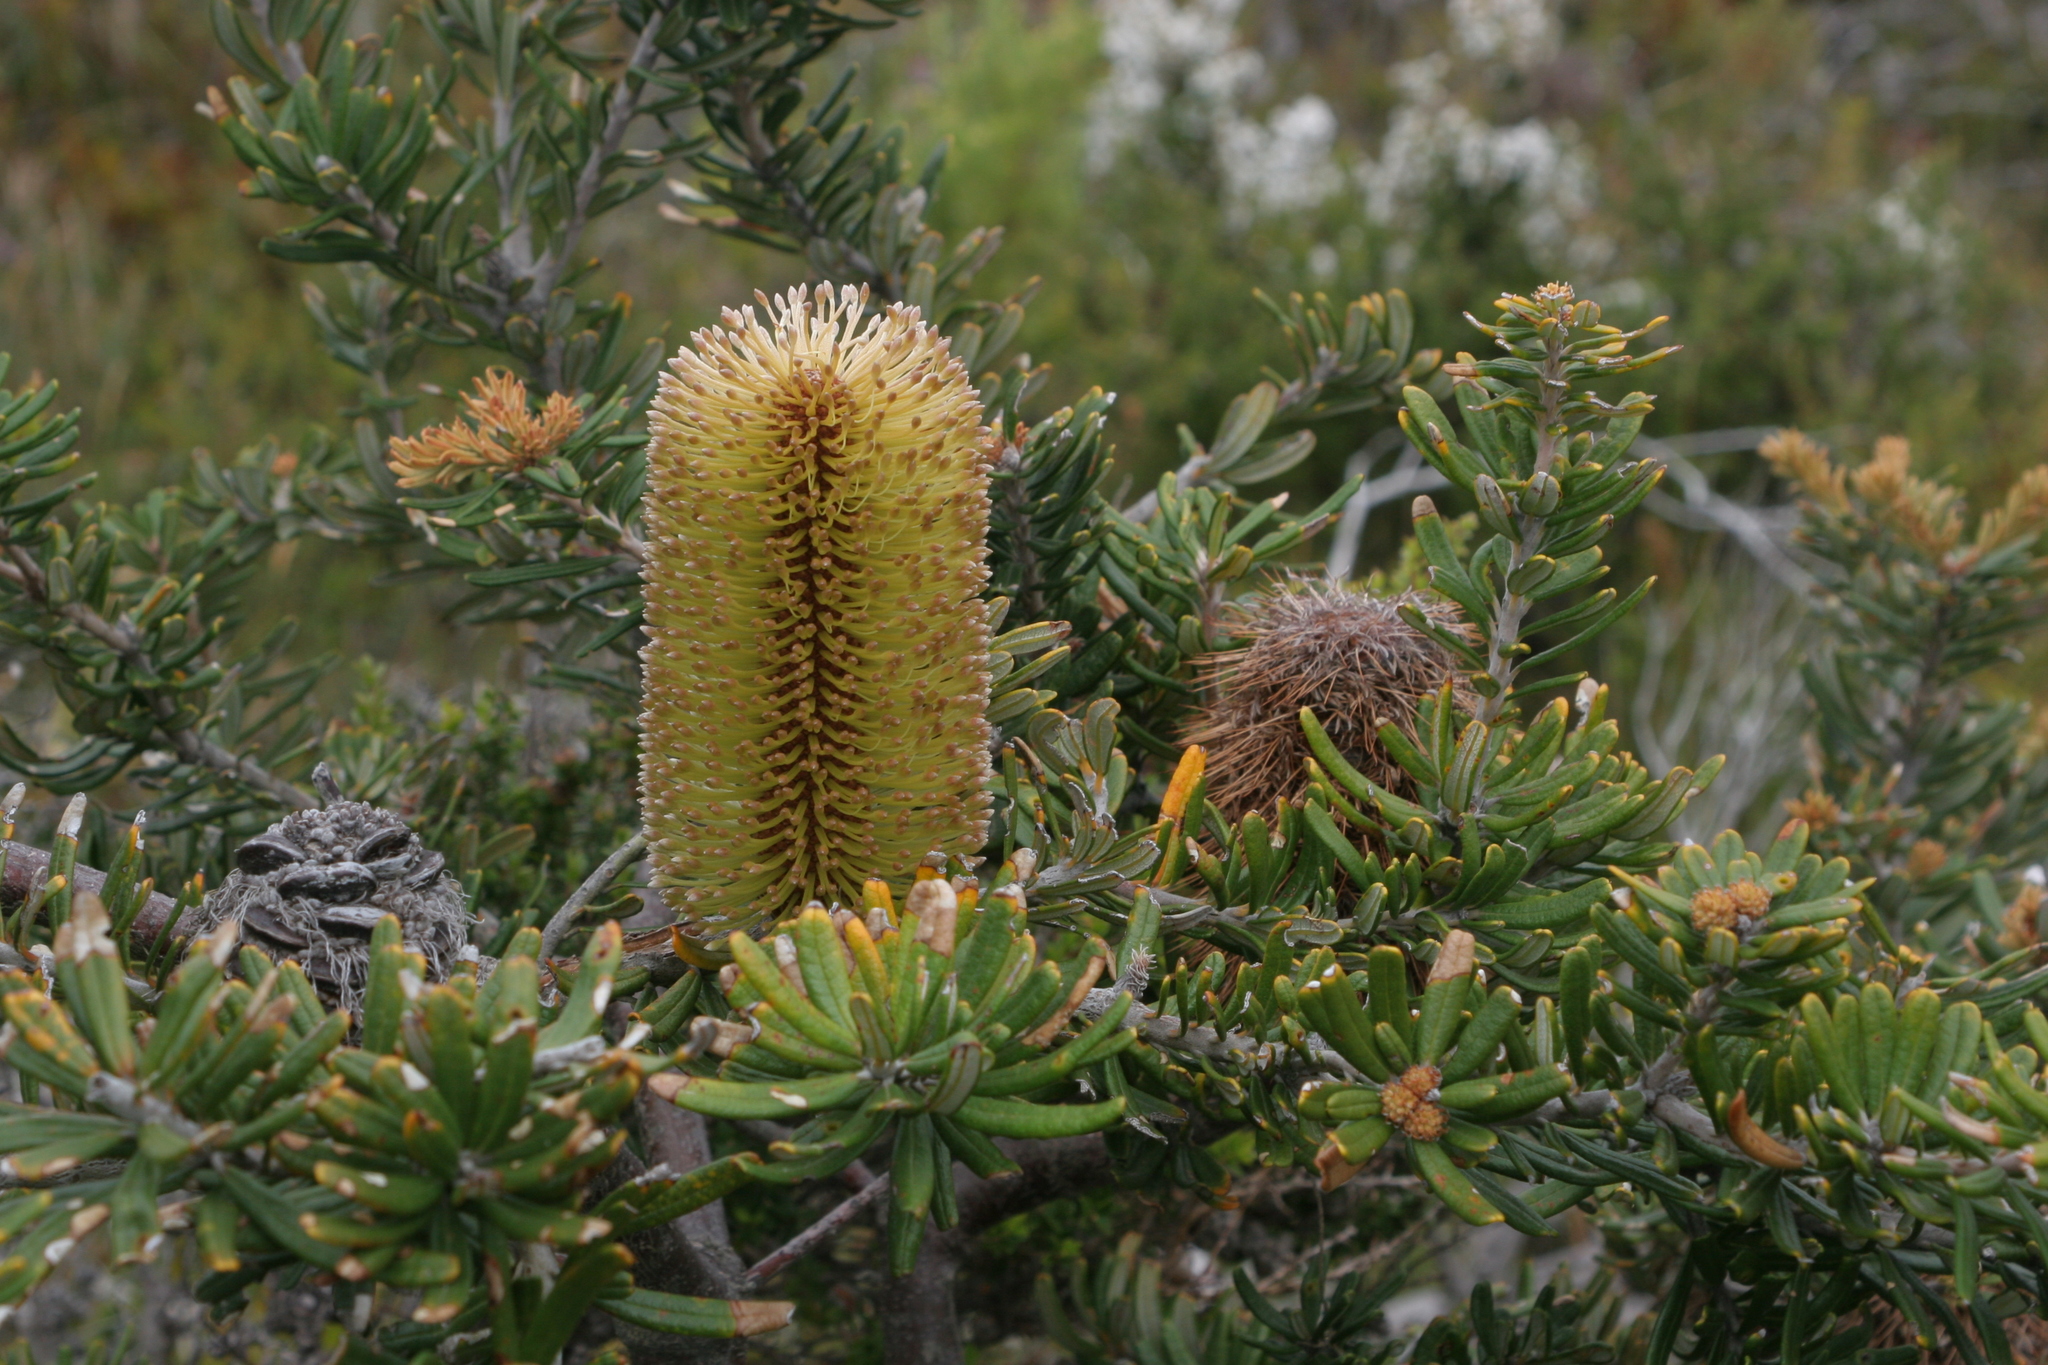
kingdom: Plantae
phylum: Tracheophyta
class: Magnoliopsida
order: Proteales
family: Proteaceae
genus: Banksia
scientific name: Banksia marginata
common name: Silver banksia
